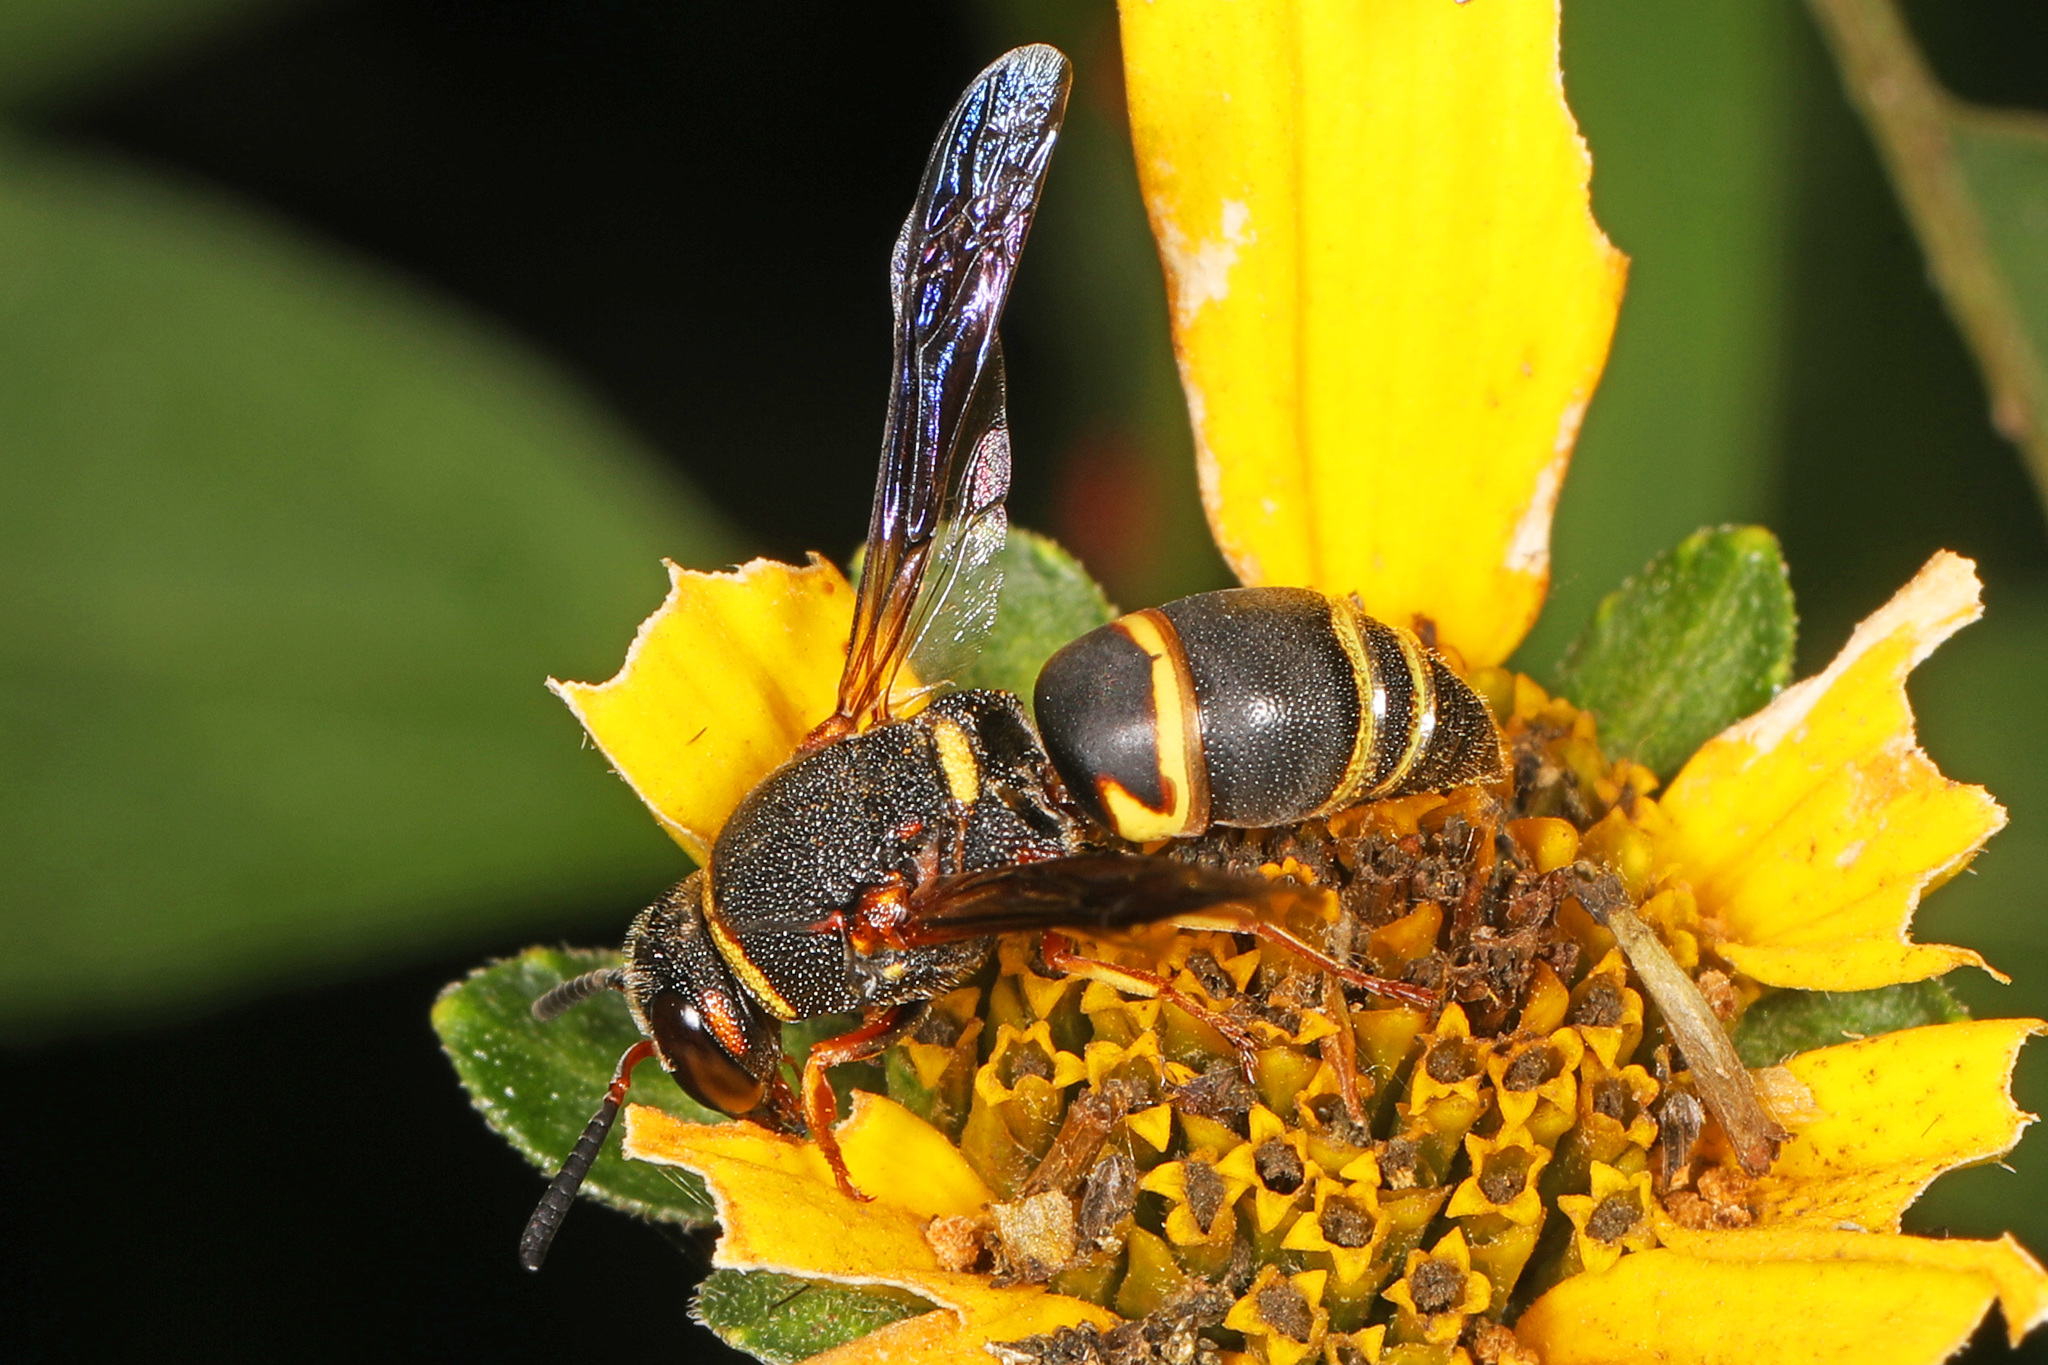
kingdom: Animalia
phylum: Arthropoda
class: Insecta
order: Hymenoptera
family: Eumenidae
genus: Euodynerus
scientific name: Euodynerus hidalgo
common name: Wasp
